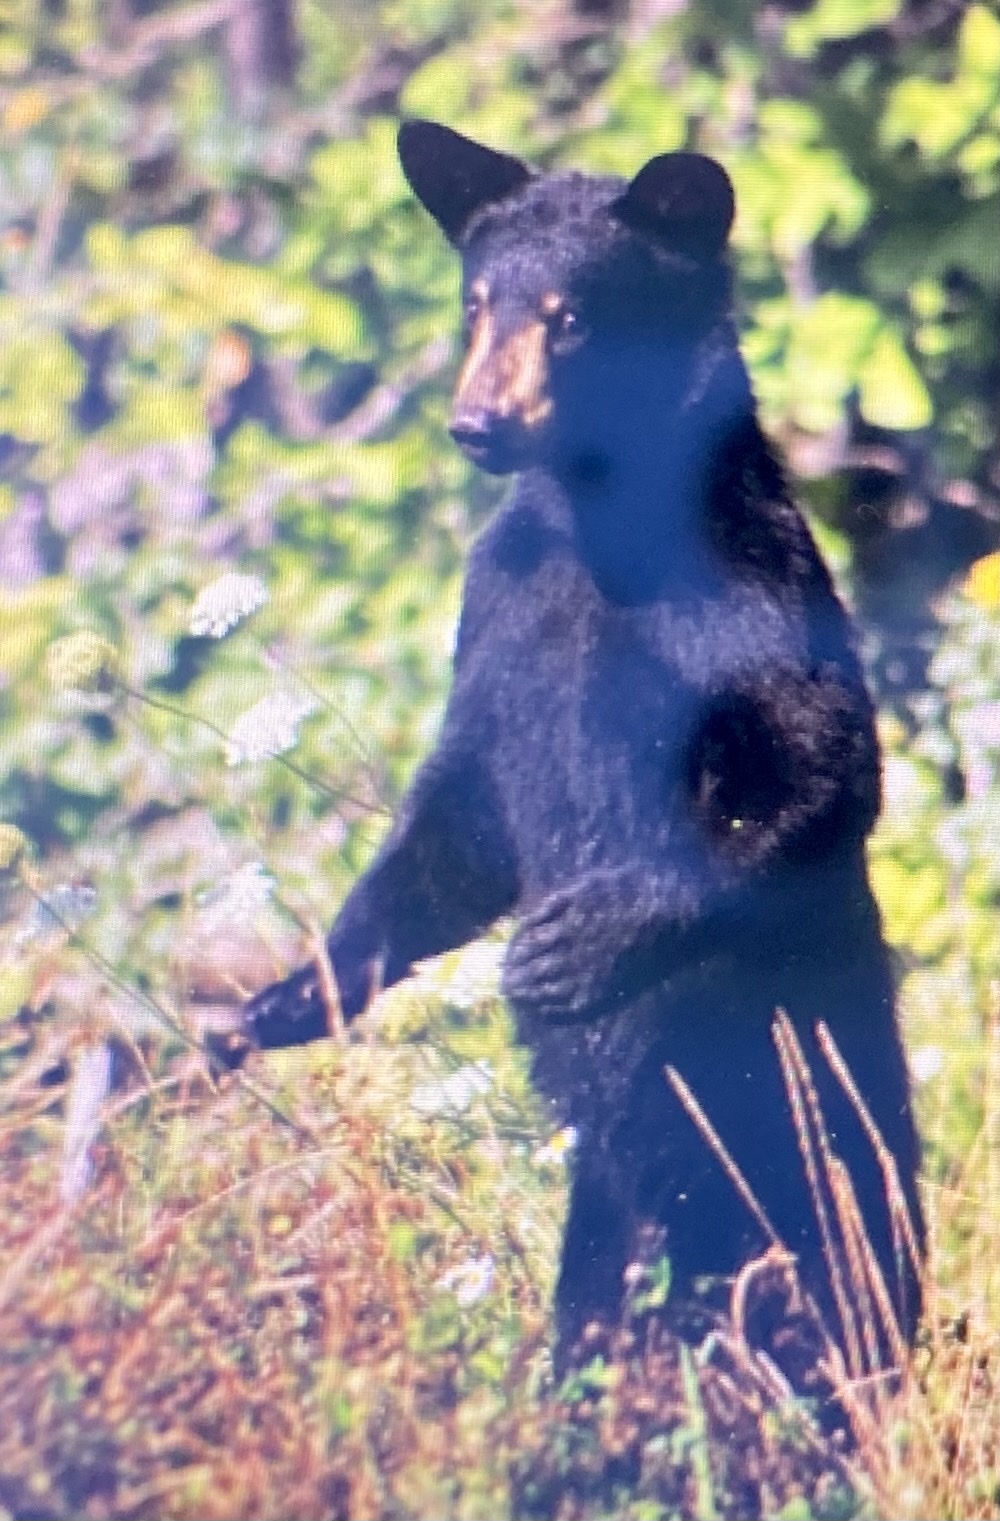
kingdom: Animalia
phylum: Chordata
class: Mammalia
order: Carnivora
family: Ursidae
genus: Ursus
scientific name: Ursus americanus
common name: American black bear
